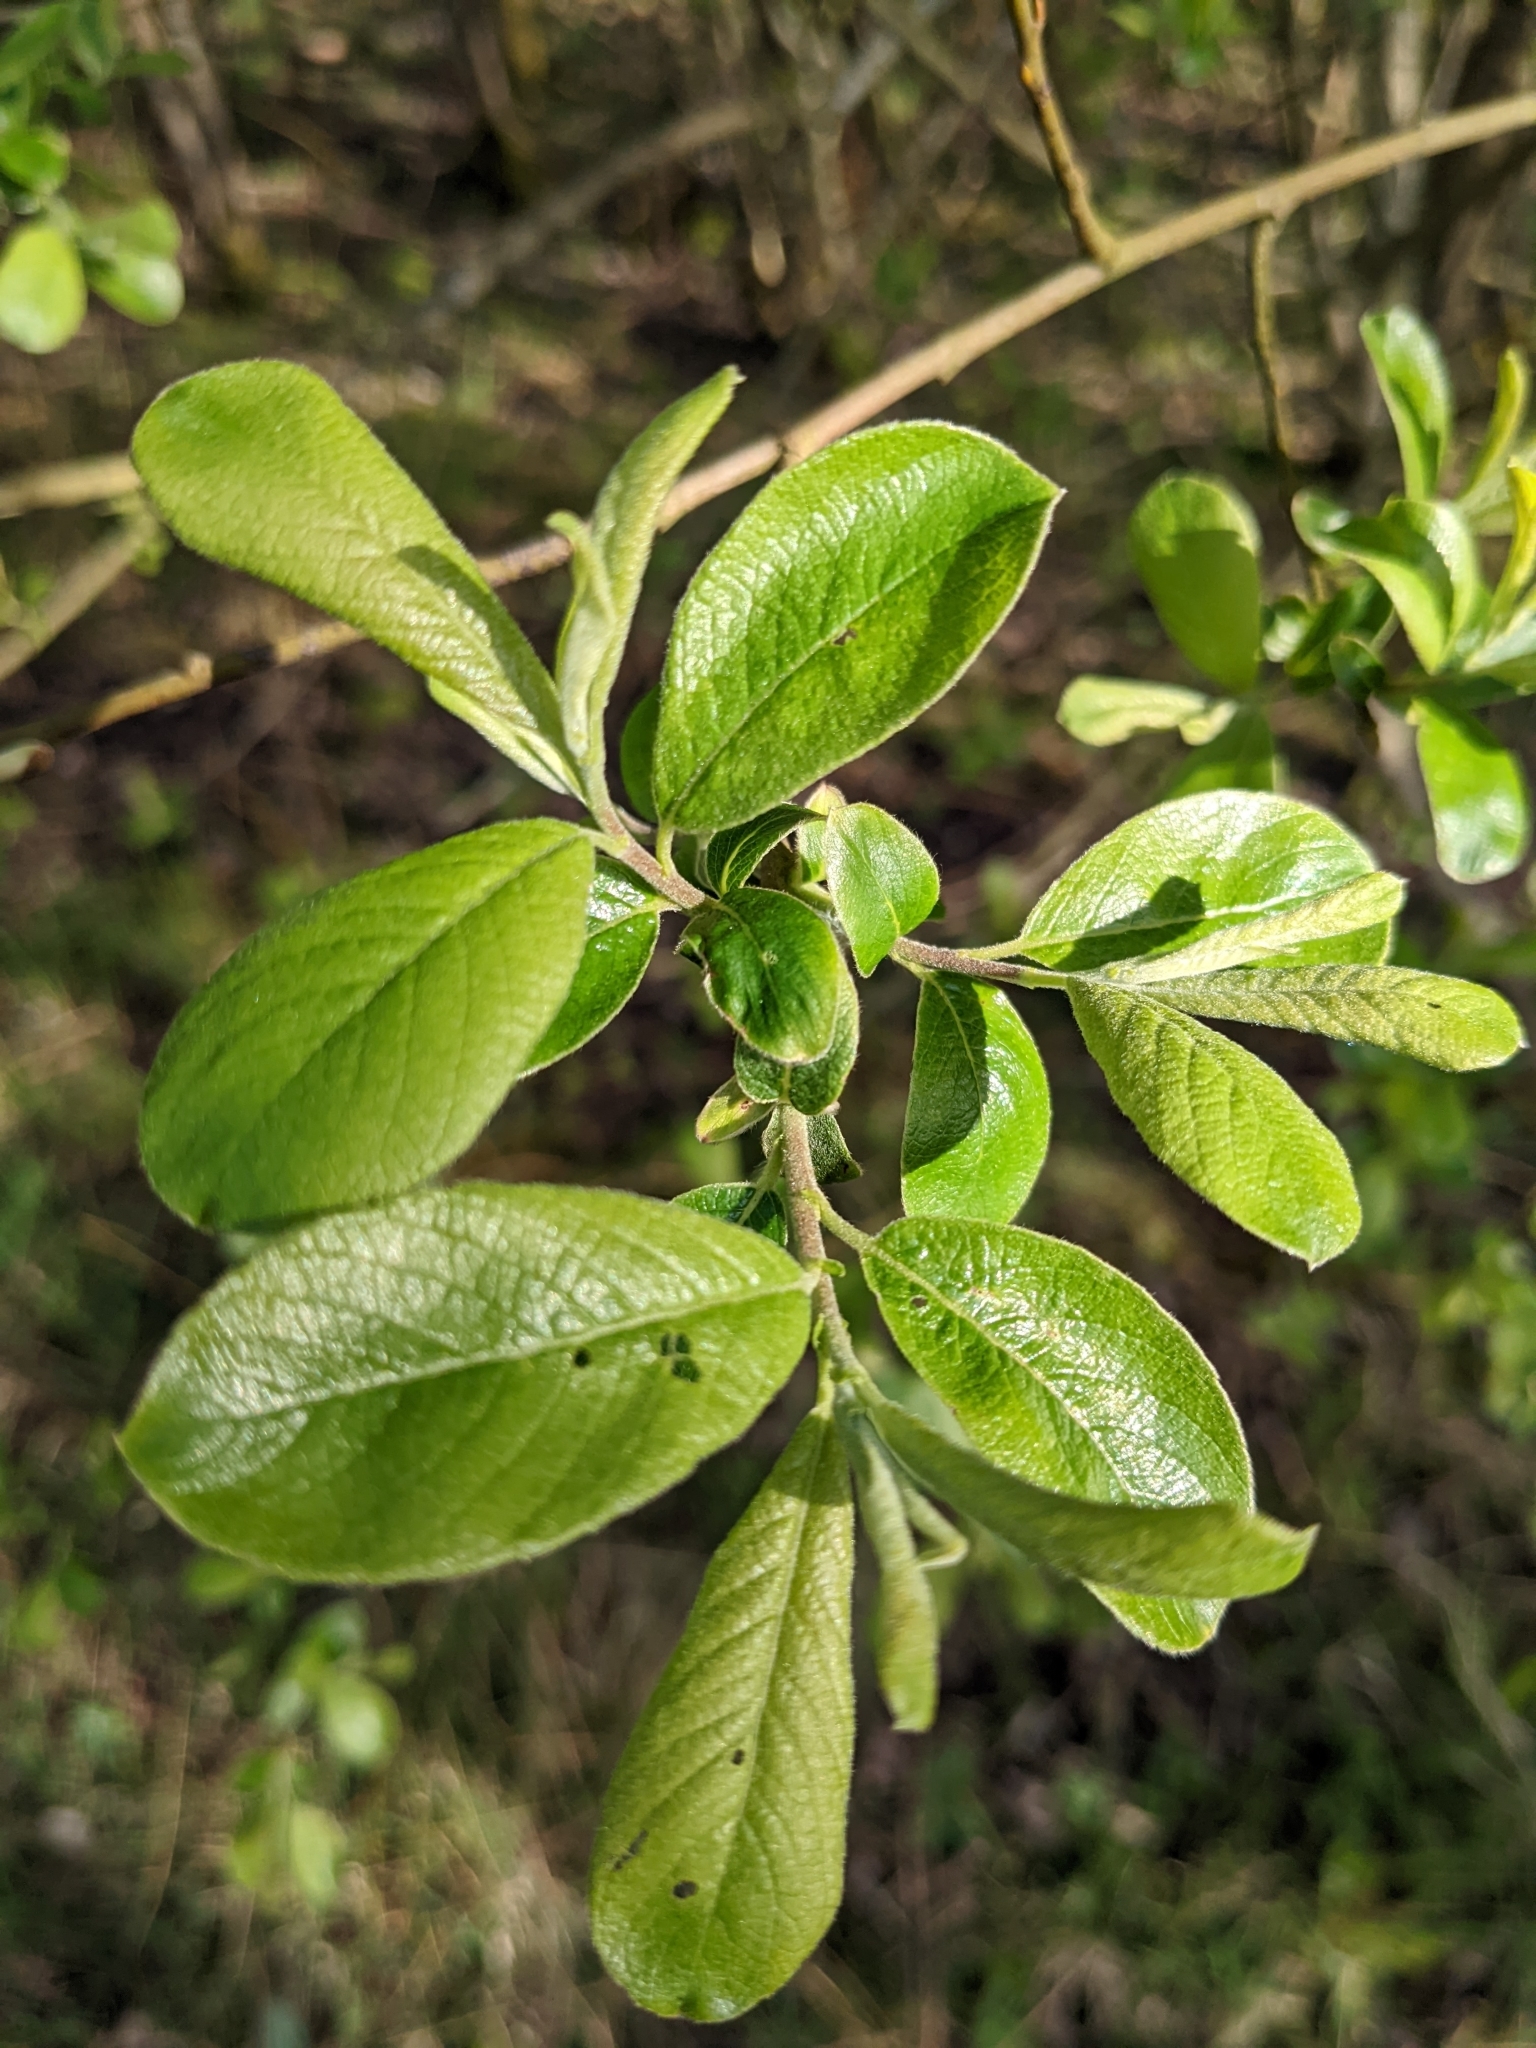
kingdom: Plantae
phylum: Tracheophyta
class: Magnoliopsida
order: Malpighiales
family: Salicaceae
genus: Salix
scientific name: Salix cinerea
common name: Common sallow
